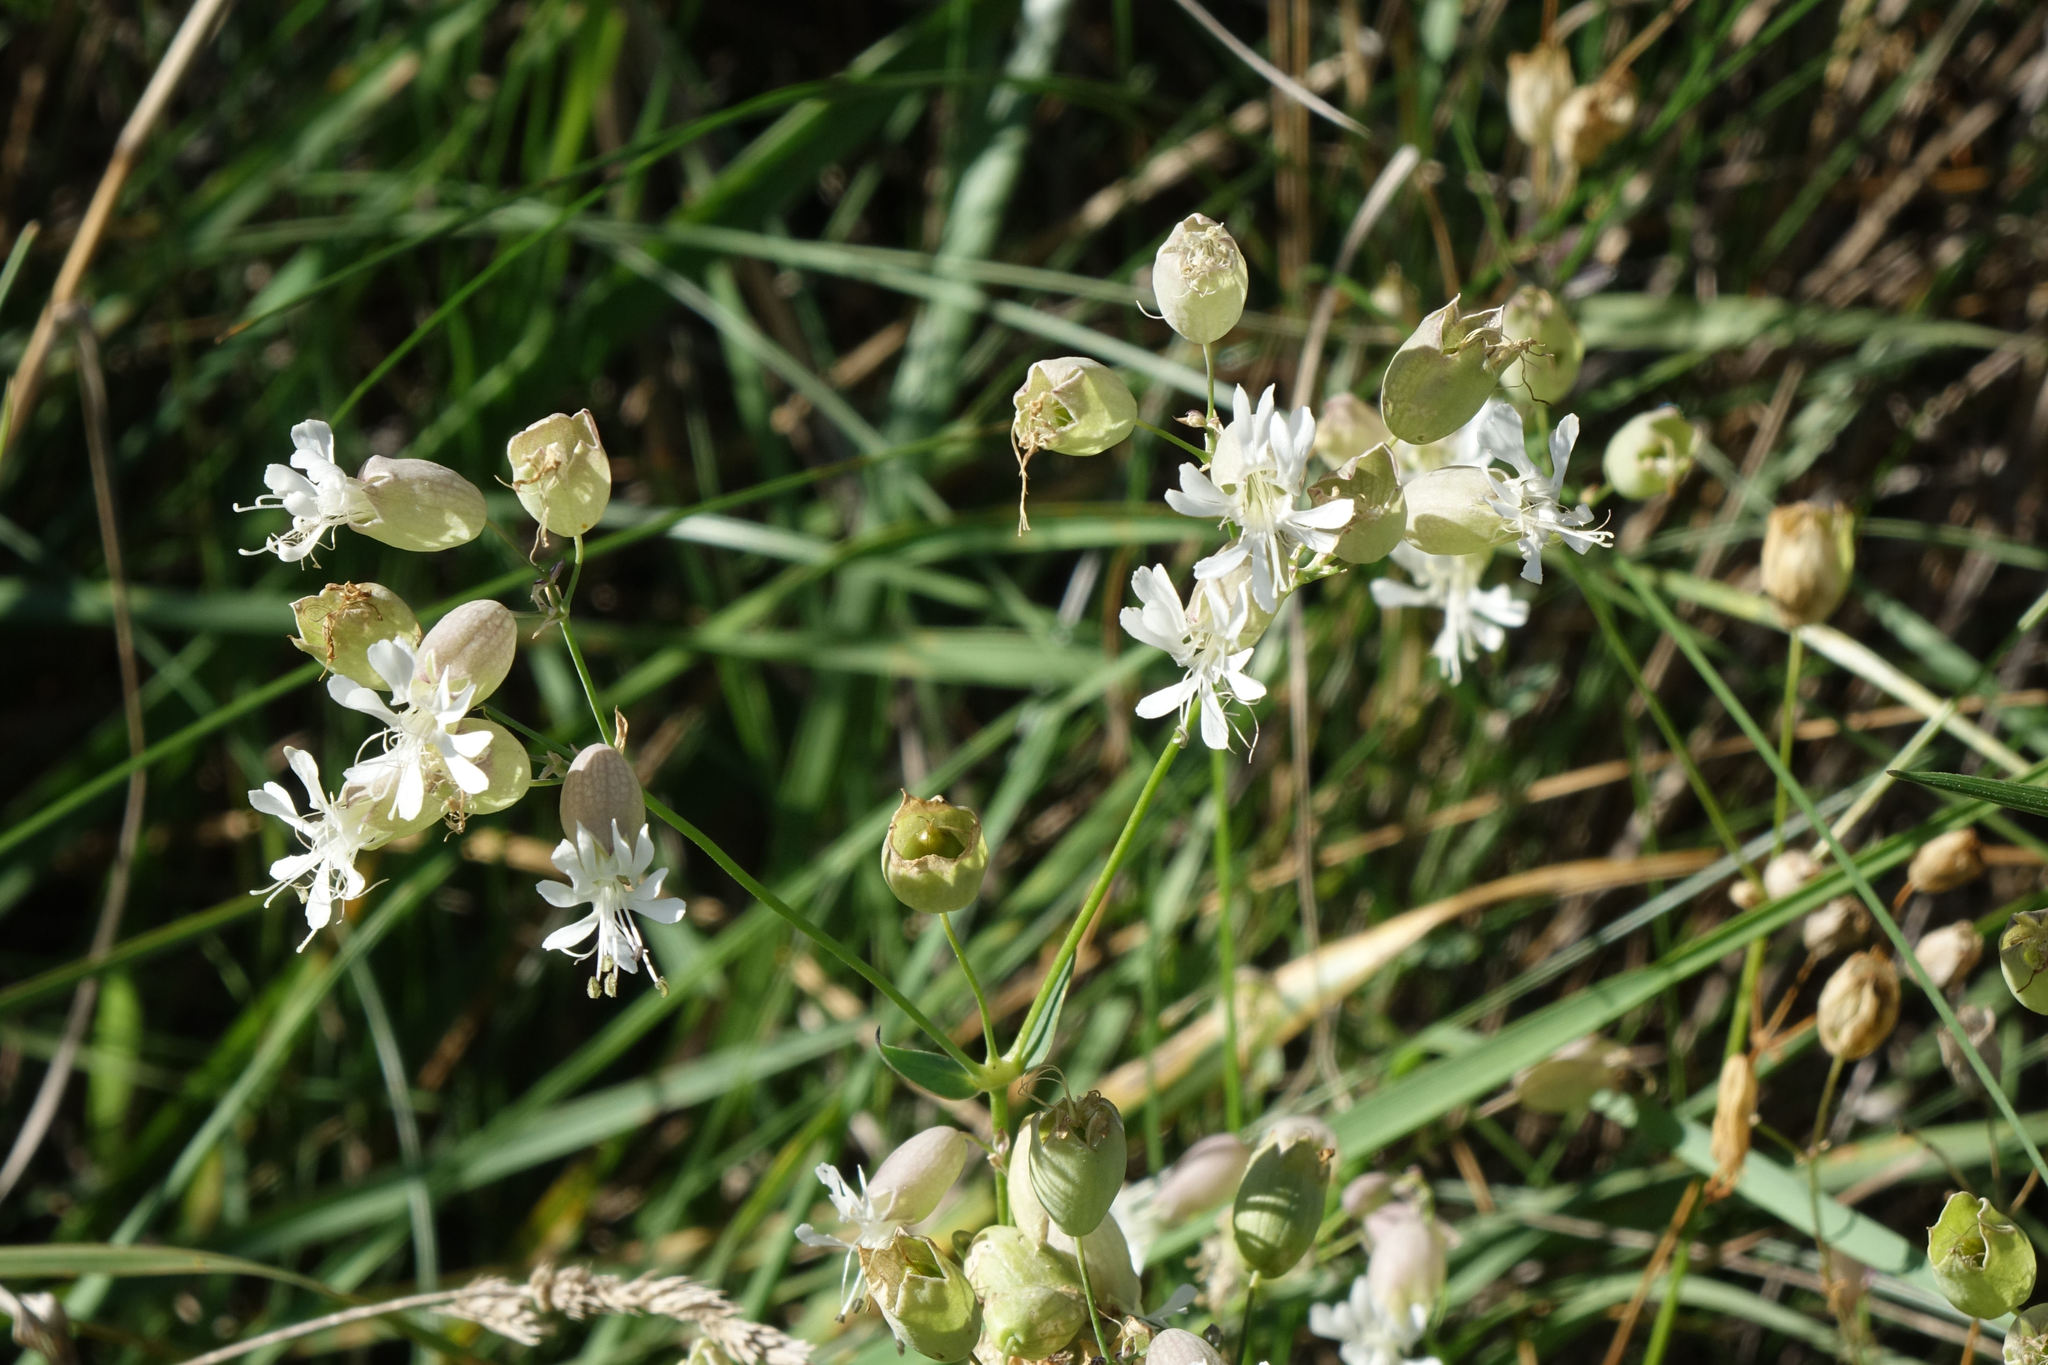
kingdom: Plantae
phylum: Tracheophyta
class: Magnoliopsida
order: Caryophyllales
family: Caryophyllaceae
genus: Silene
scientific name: Silene vulgaris
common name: Bladder campion
